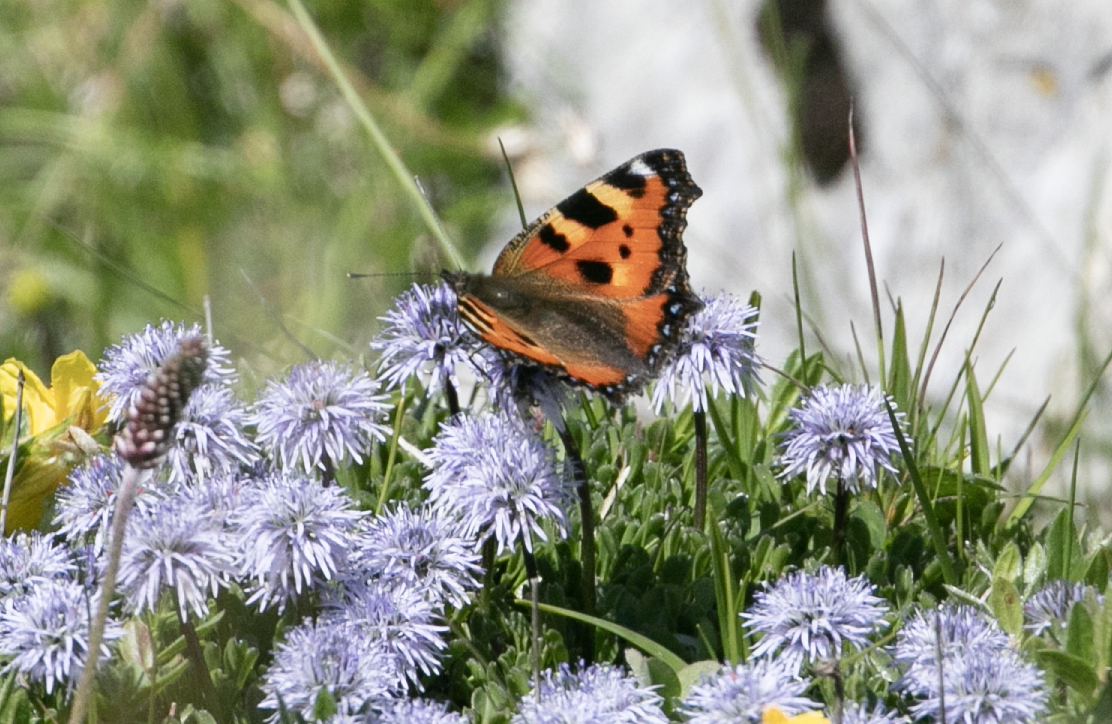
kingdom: Animalia
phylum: Arthropoda
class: Insecta
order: Lepidoptera
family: Nymphalidae
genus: Aglais
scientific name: Aglais urticae
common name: Small tortoiseshell
